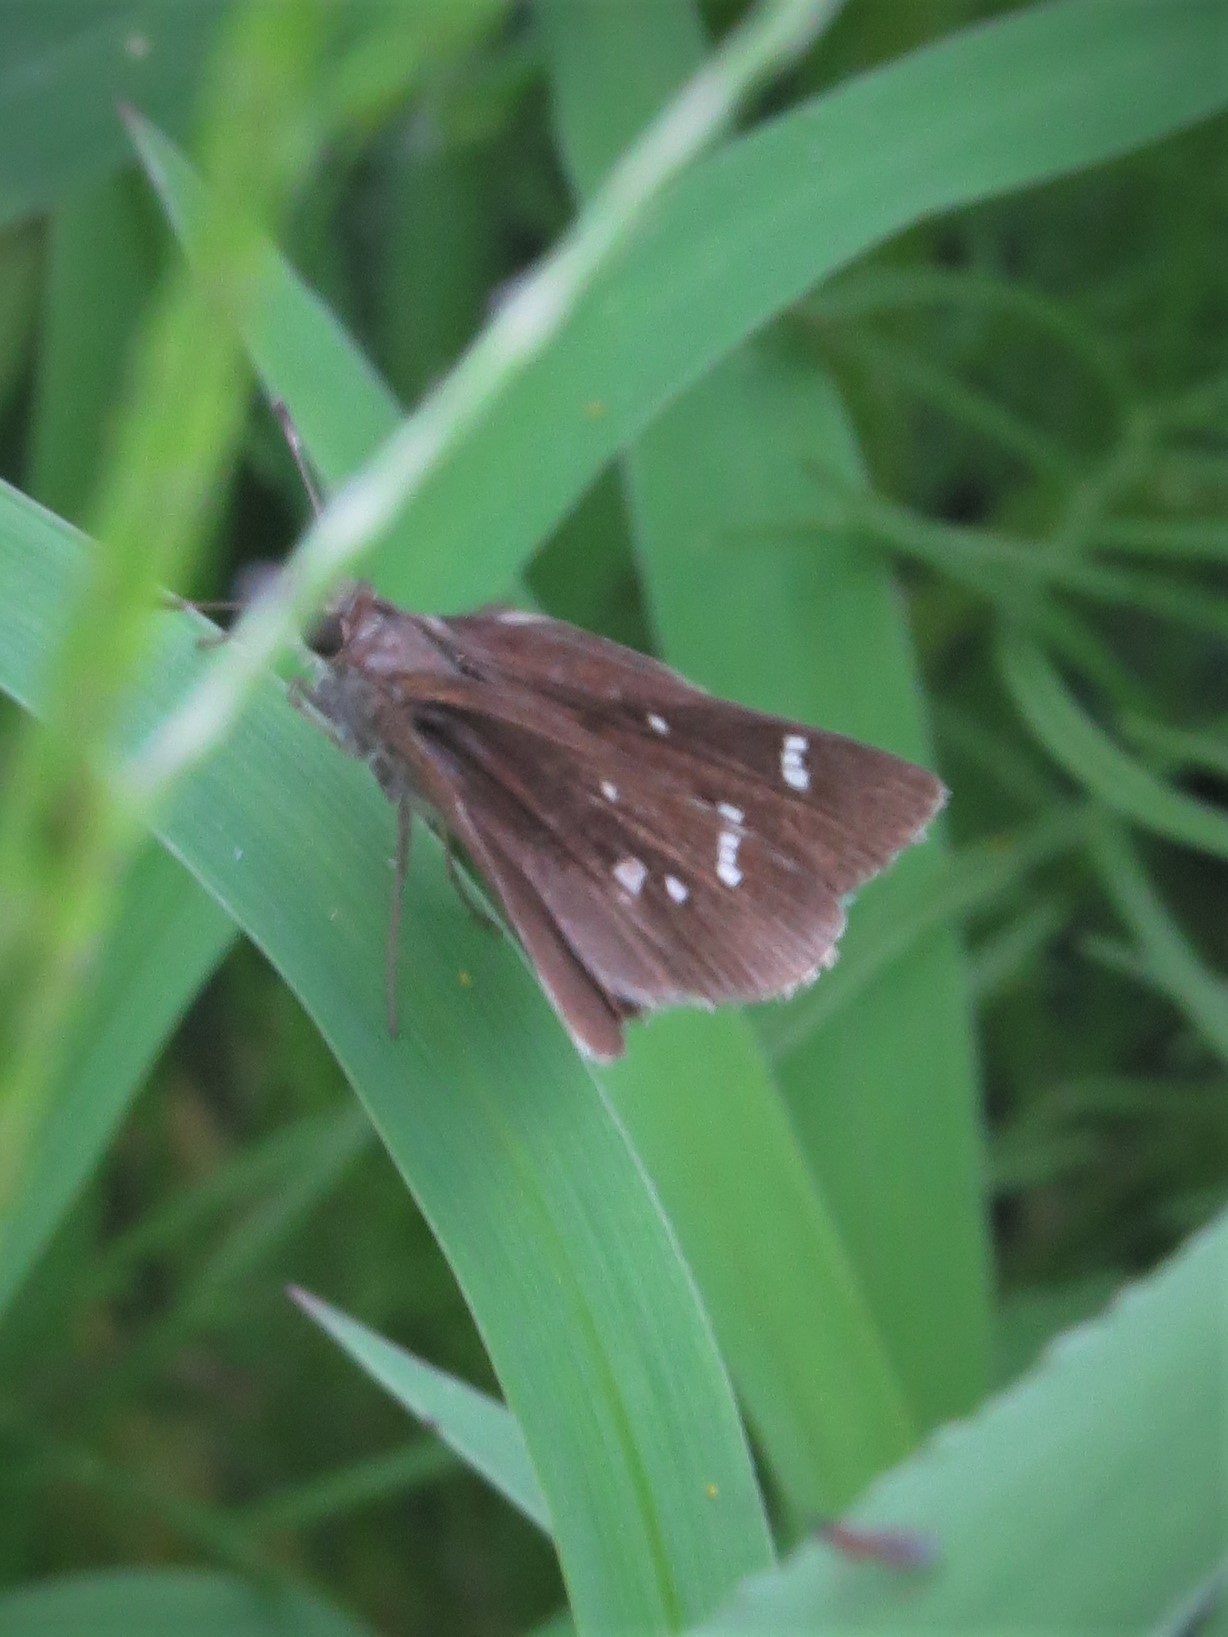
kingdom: Animalia
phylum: Arthropoda
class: Insecta
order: Lepidoptera
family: Hesperiidae
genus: Lerema
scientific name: Lerema accius
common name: Clouded skipper
